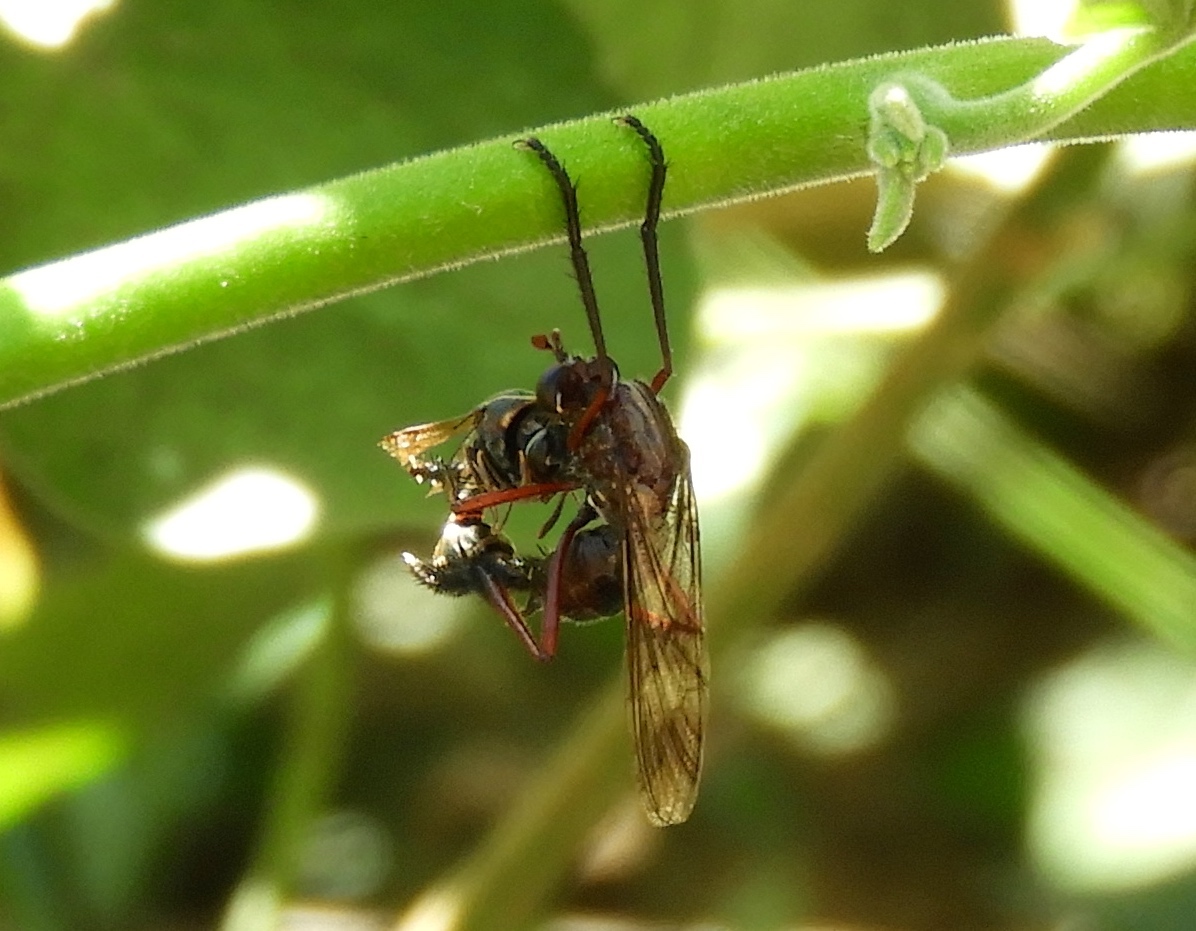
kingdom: Animalia
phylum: Arthropoda
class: Insecta
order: Diptera
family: Asilidae
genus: Pseudorus
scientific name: Pseudorus distendens
